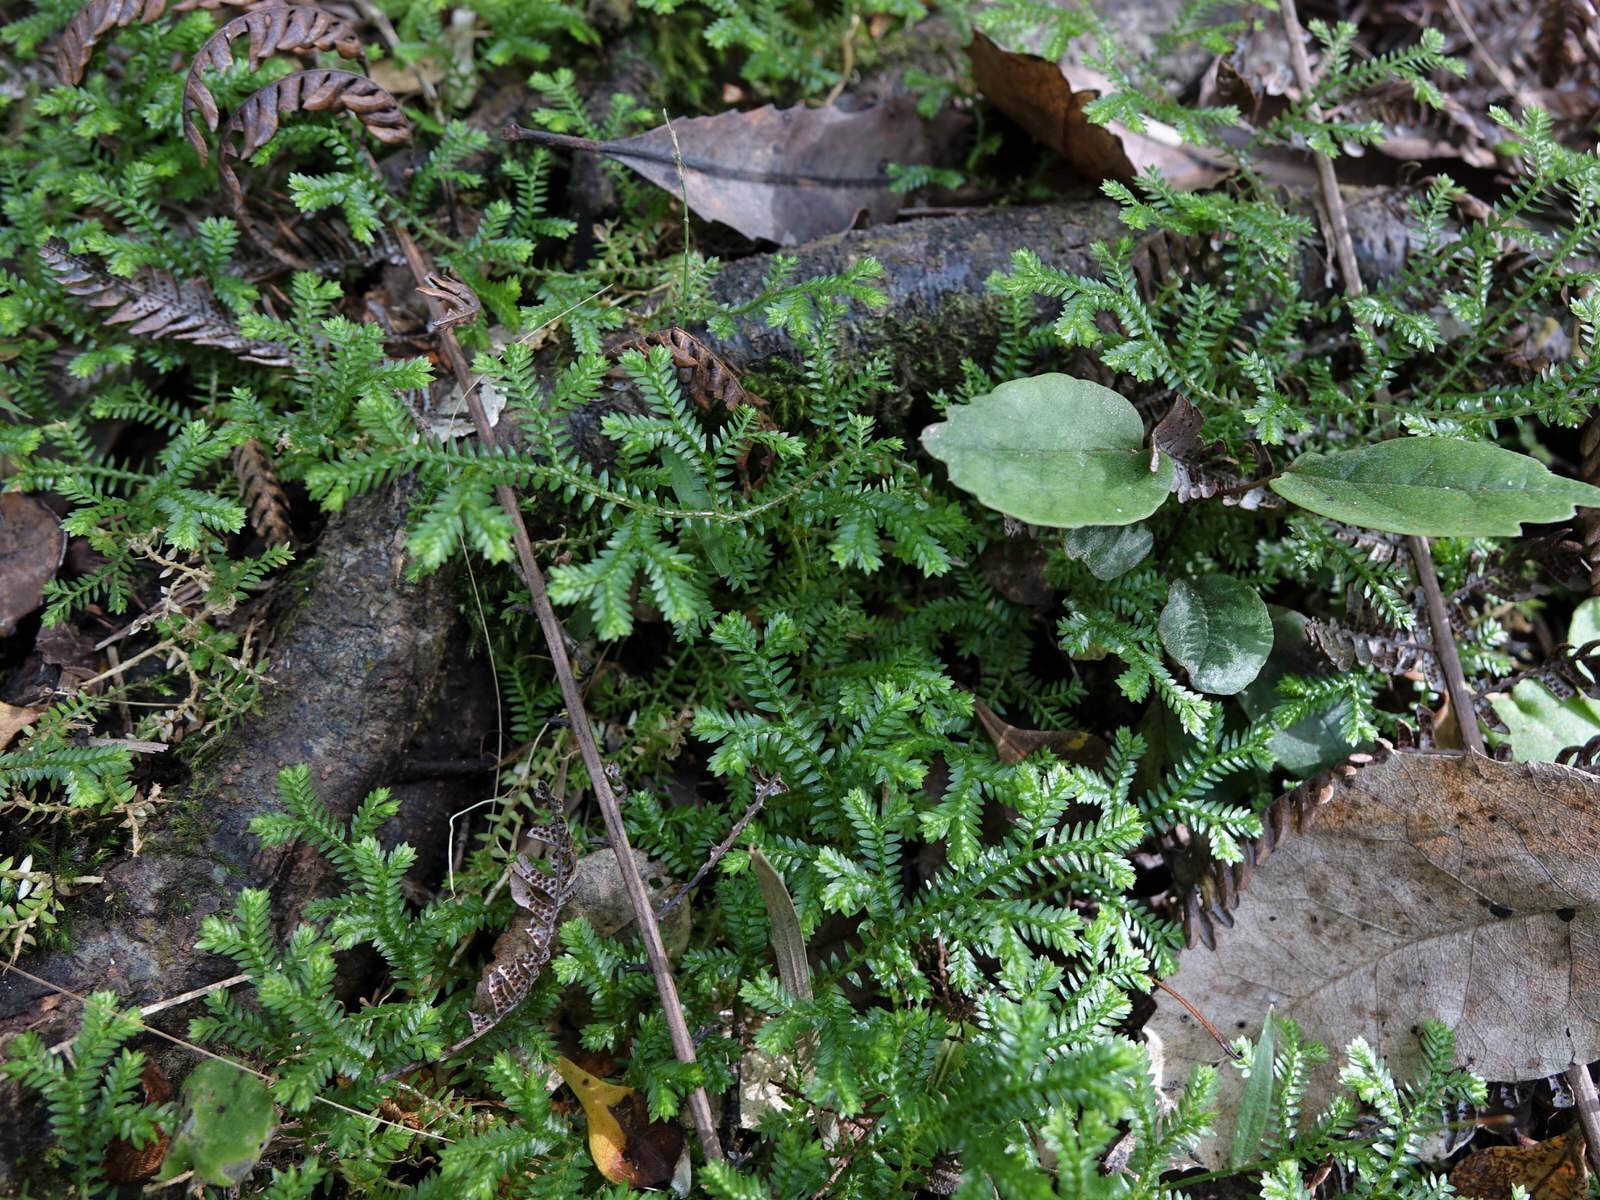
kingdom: Plantae
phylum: Tracheophyta
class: Lycopodiopsida
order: Selaginellales
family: Selaginellaceae
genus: Selaginella
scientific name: Selaginella kraussiana
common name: Krauss' spikemoss
